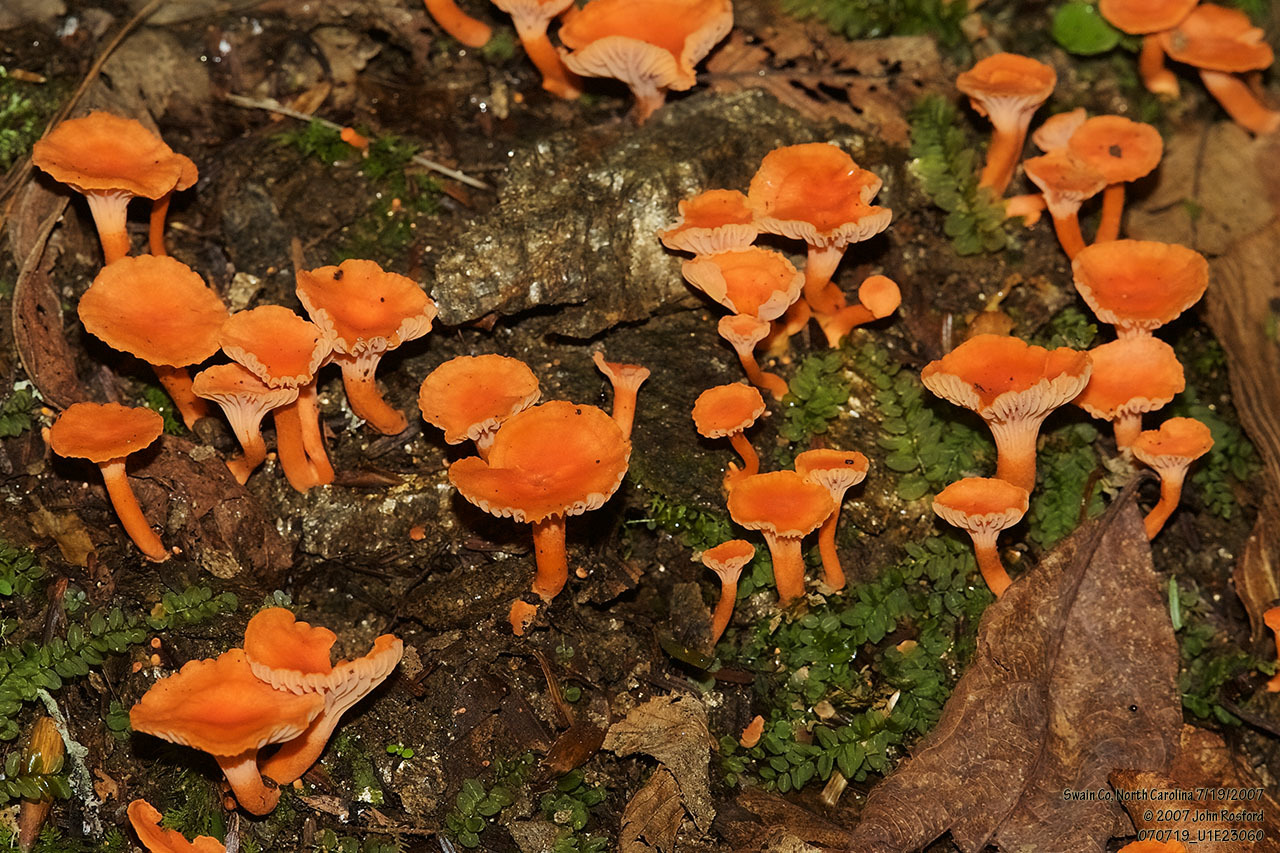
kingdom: Fungi
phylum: Basidiomycota
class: Agaricomycetes
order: Cantharellales
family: Hydnaceae
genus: Cantharellus
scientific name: Cantharellus cinnabarinus
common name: Cinnabar chanterelle
